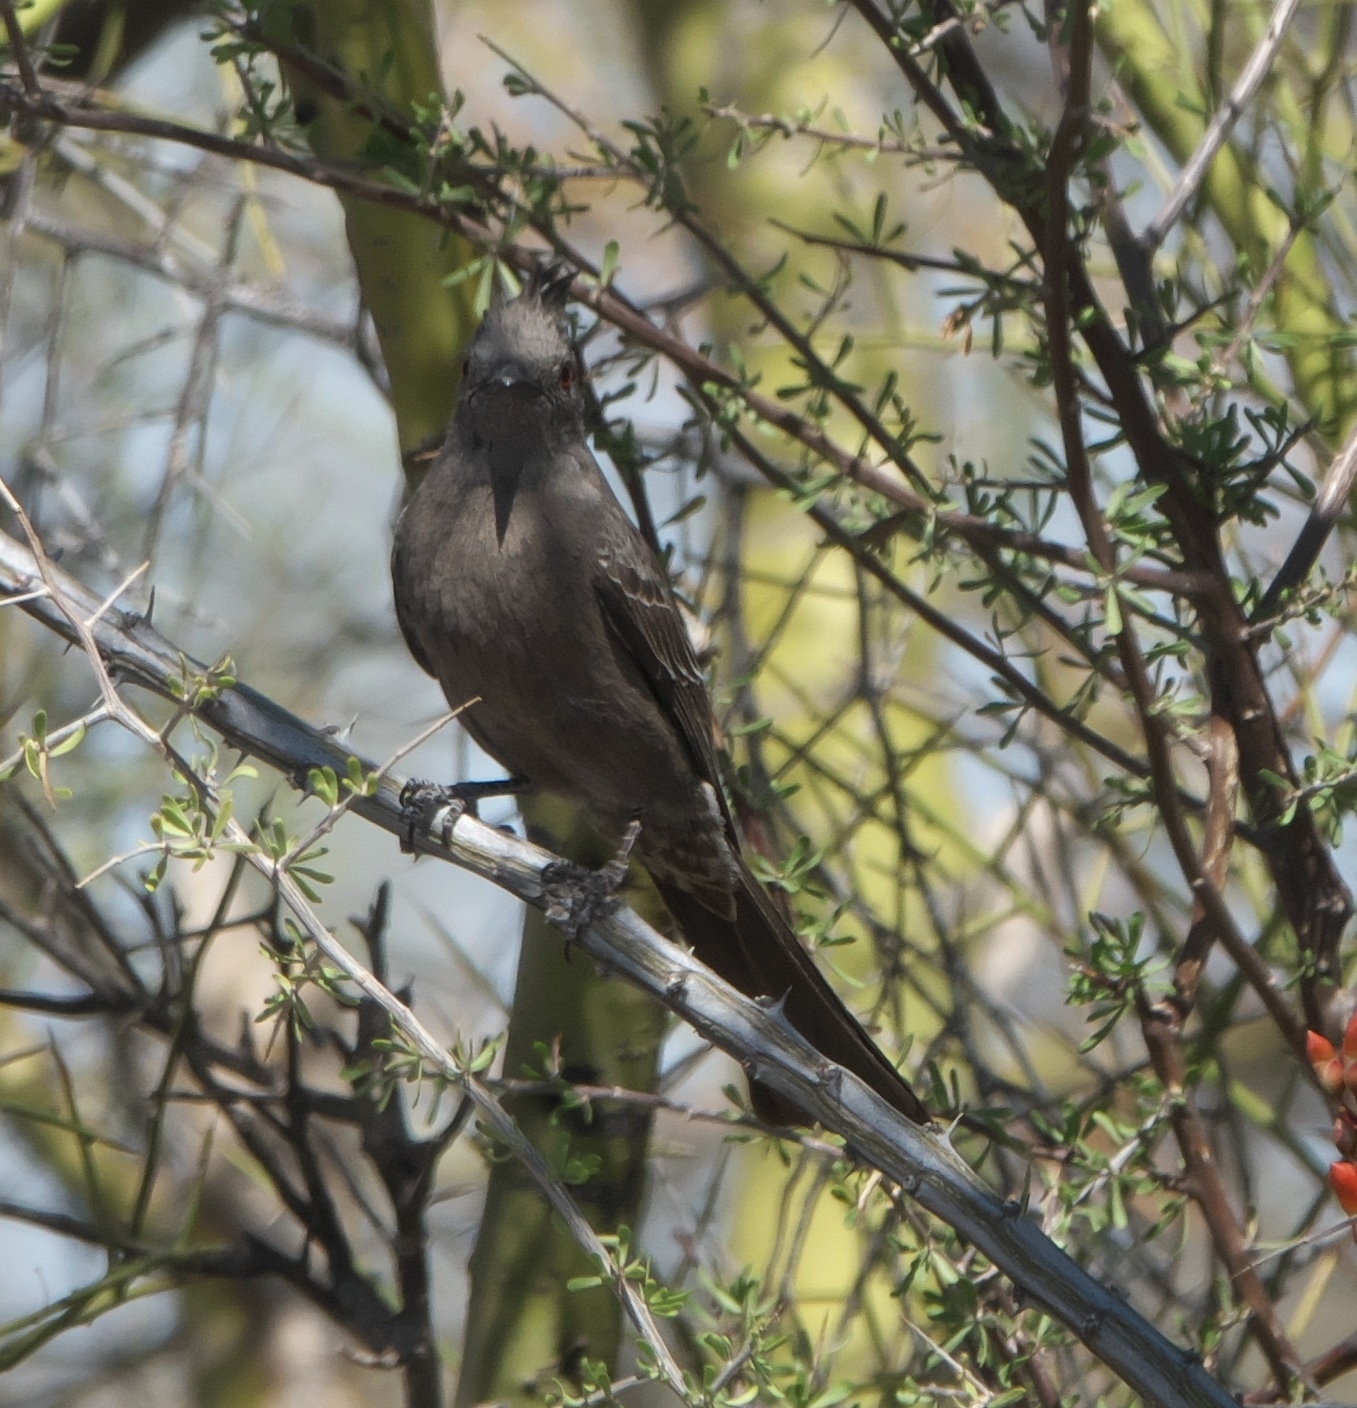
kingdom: Animalia
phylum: Chordata
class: Aves
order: Passeriformes
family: Ptilogonatidae
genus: Phainopepla
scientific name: Phainopepla nitens
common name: Phainopepla
